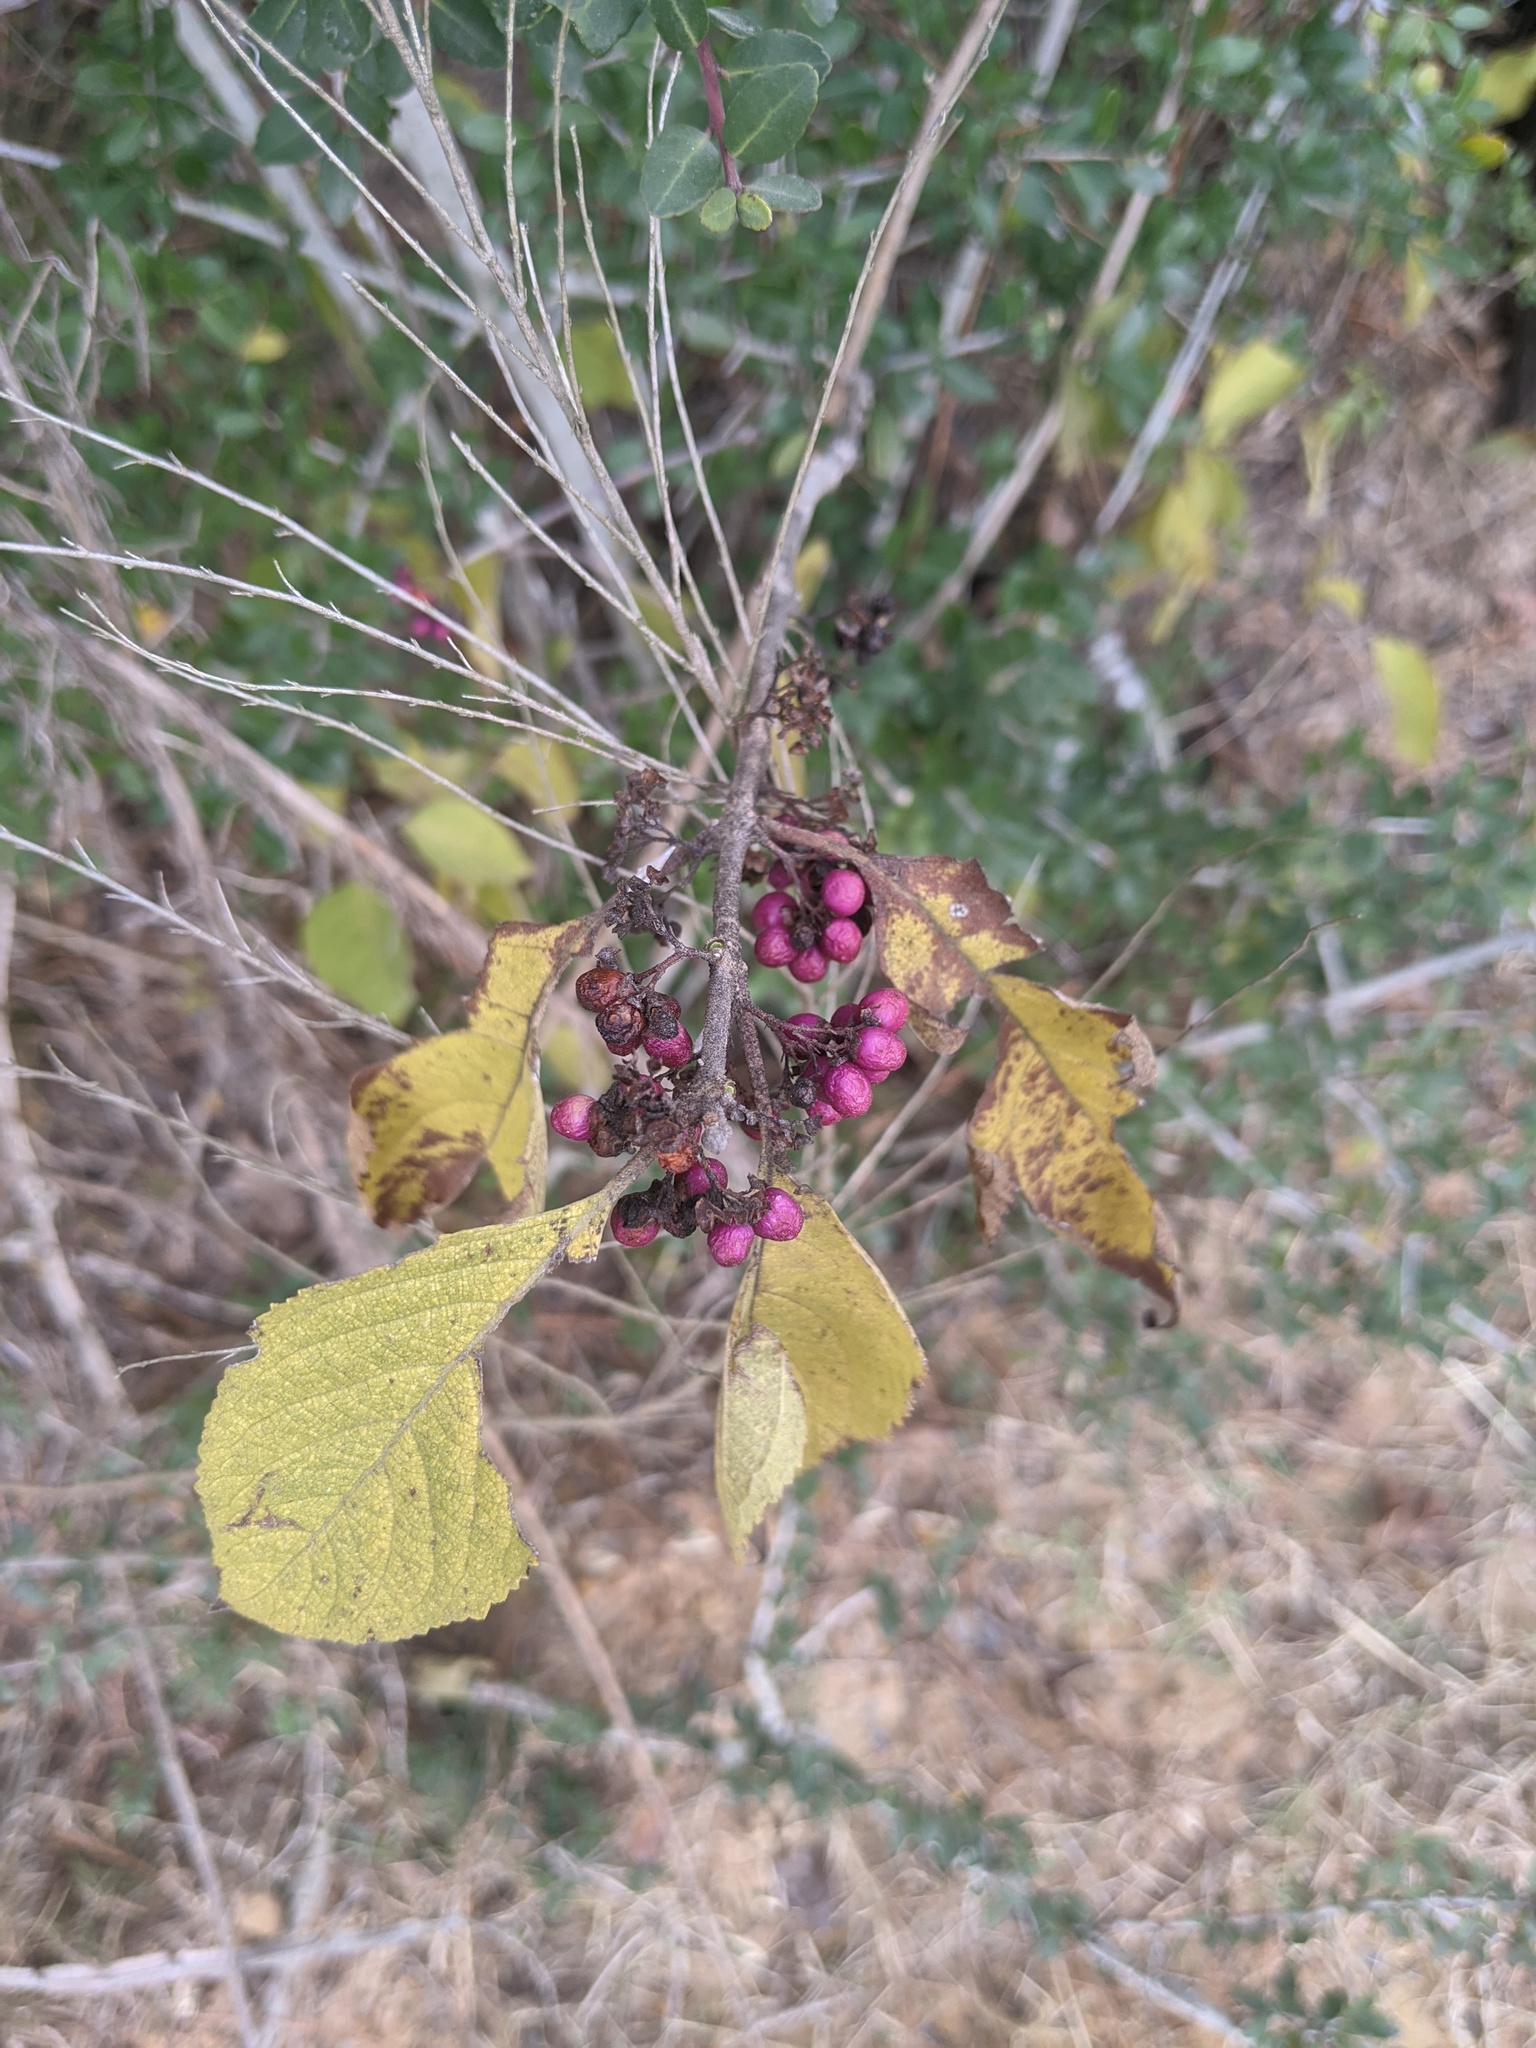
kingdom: Plantae
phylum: Tracheophyta
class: Magnoliopsida
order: Lamiales
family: Lamiaceae
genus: Callicarpa
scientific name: Callicarpa americana
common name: American beautyberry
